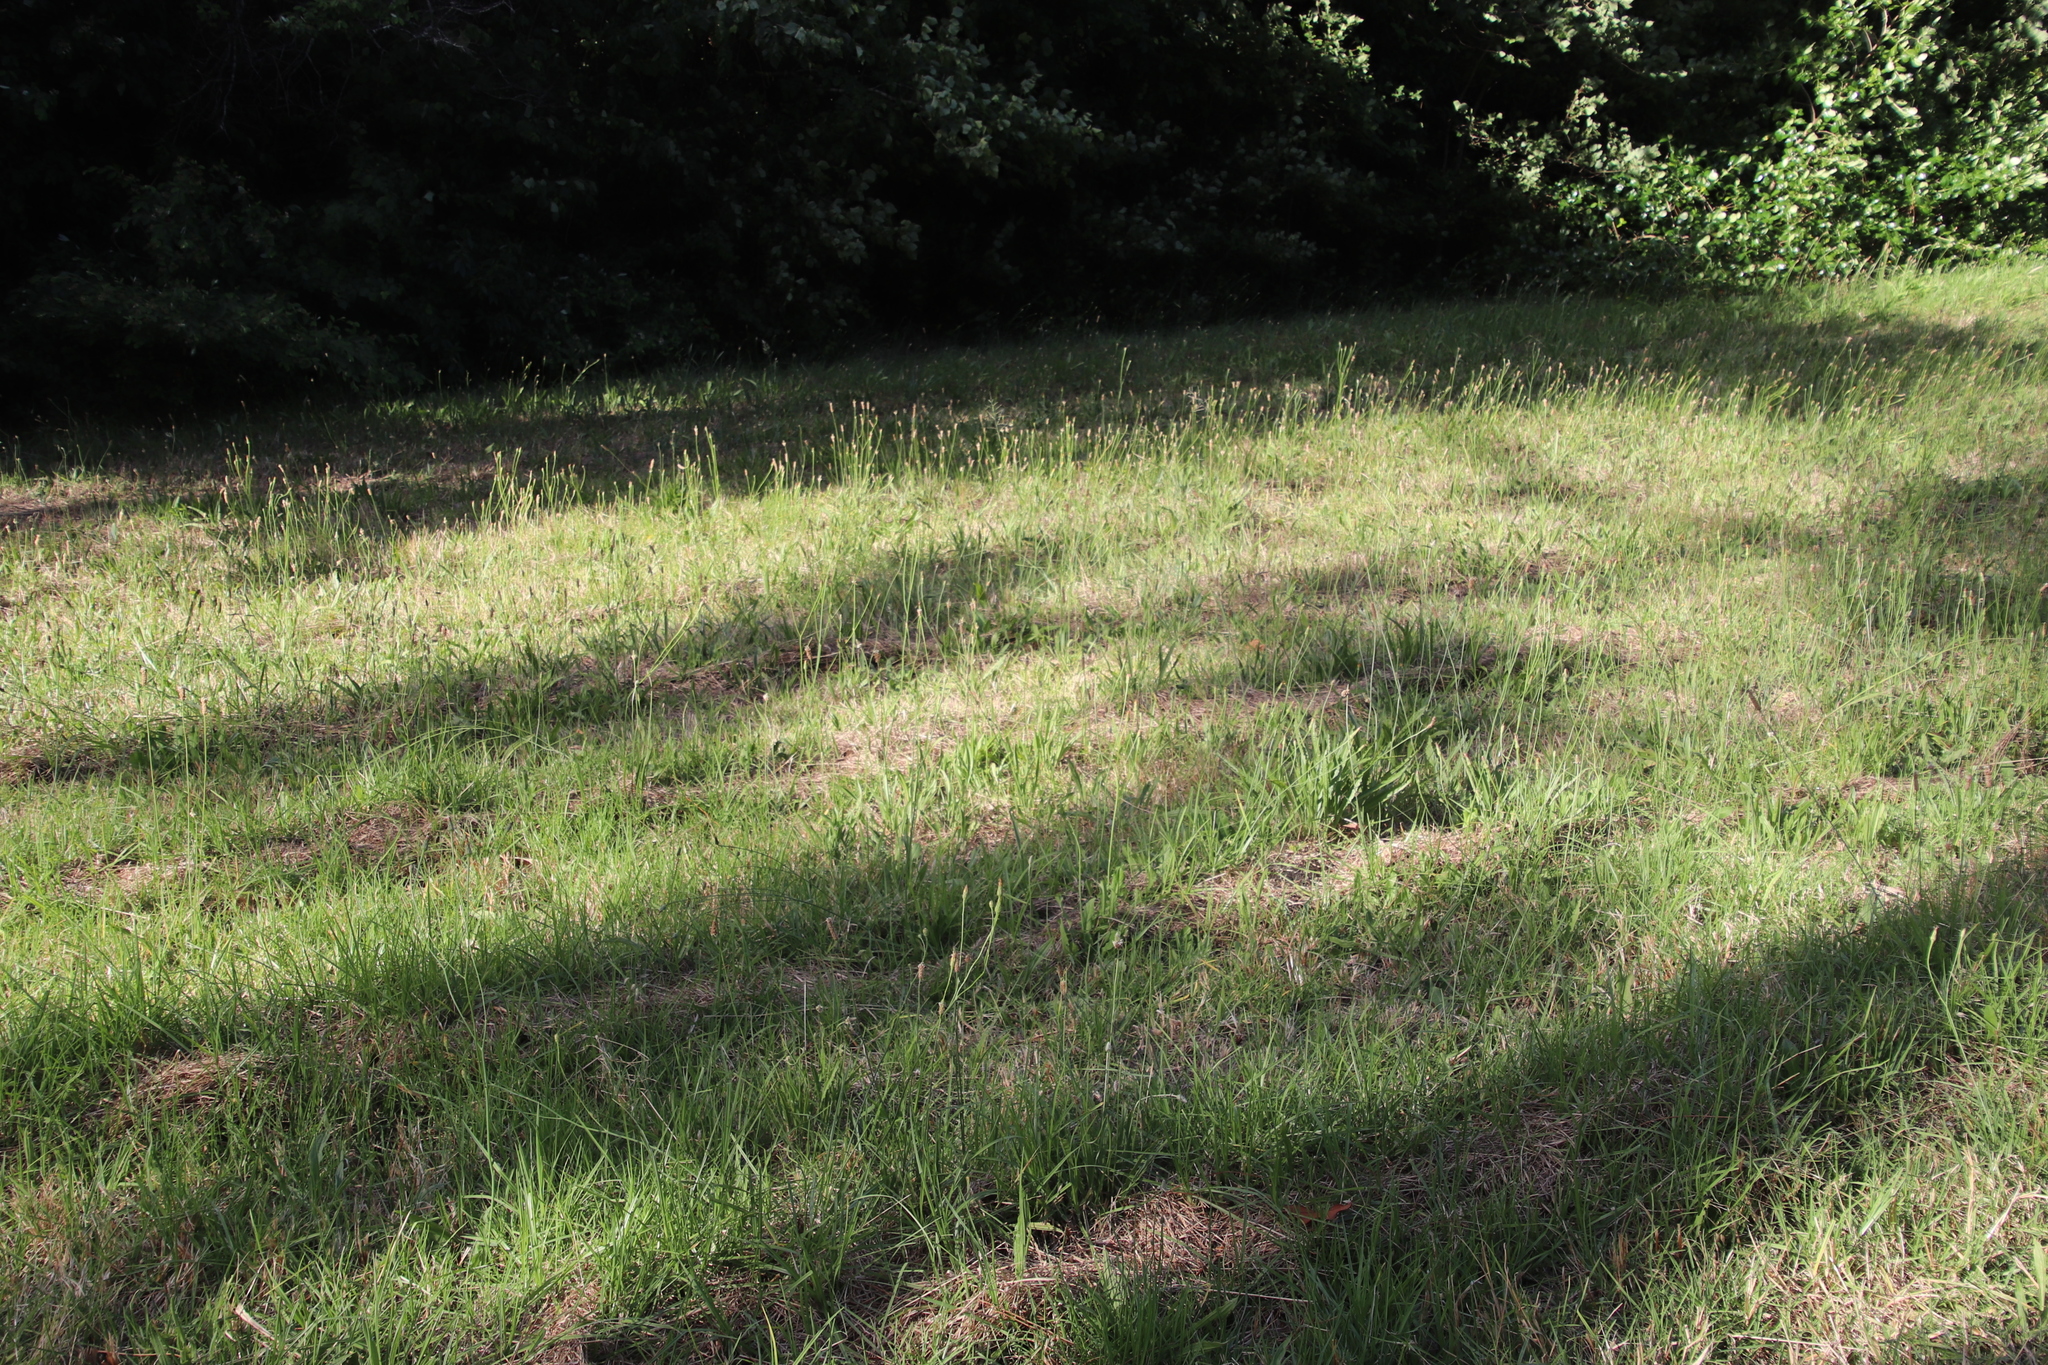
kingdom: Plantae
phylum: Tracheophyta
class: Magnoliopsida
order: Lamiales
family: Plantaginaceae
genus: Plantago
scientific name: Plantago lanceolata
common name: Ribwort plantain
